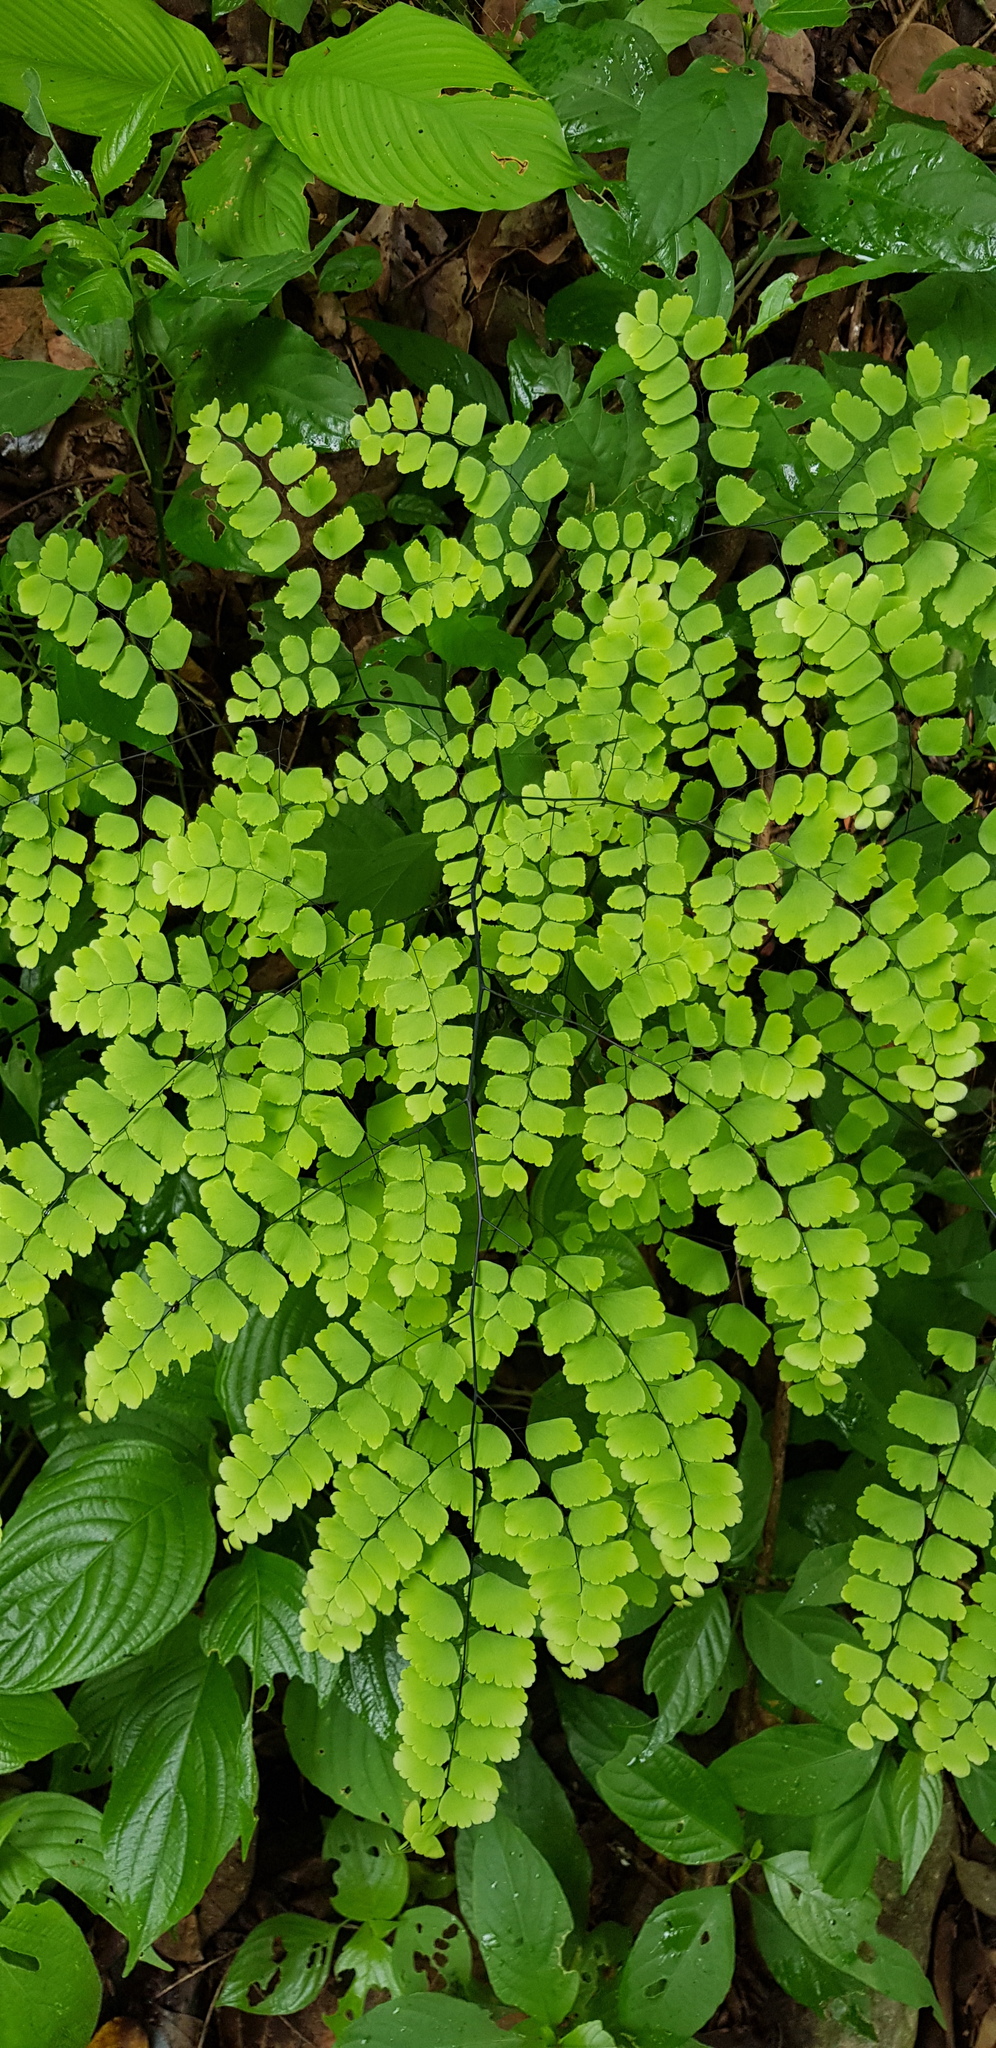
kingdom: Plantae
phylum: Tracheophyta
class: Polypodiopsida
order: Polypodiales
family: Pteridaceae
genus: Adiantum
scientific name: Adiantum amplum
